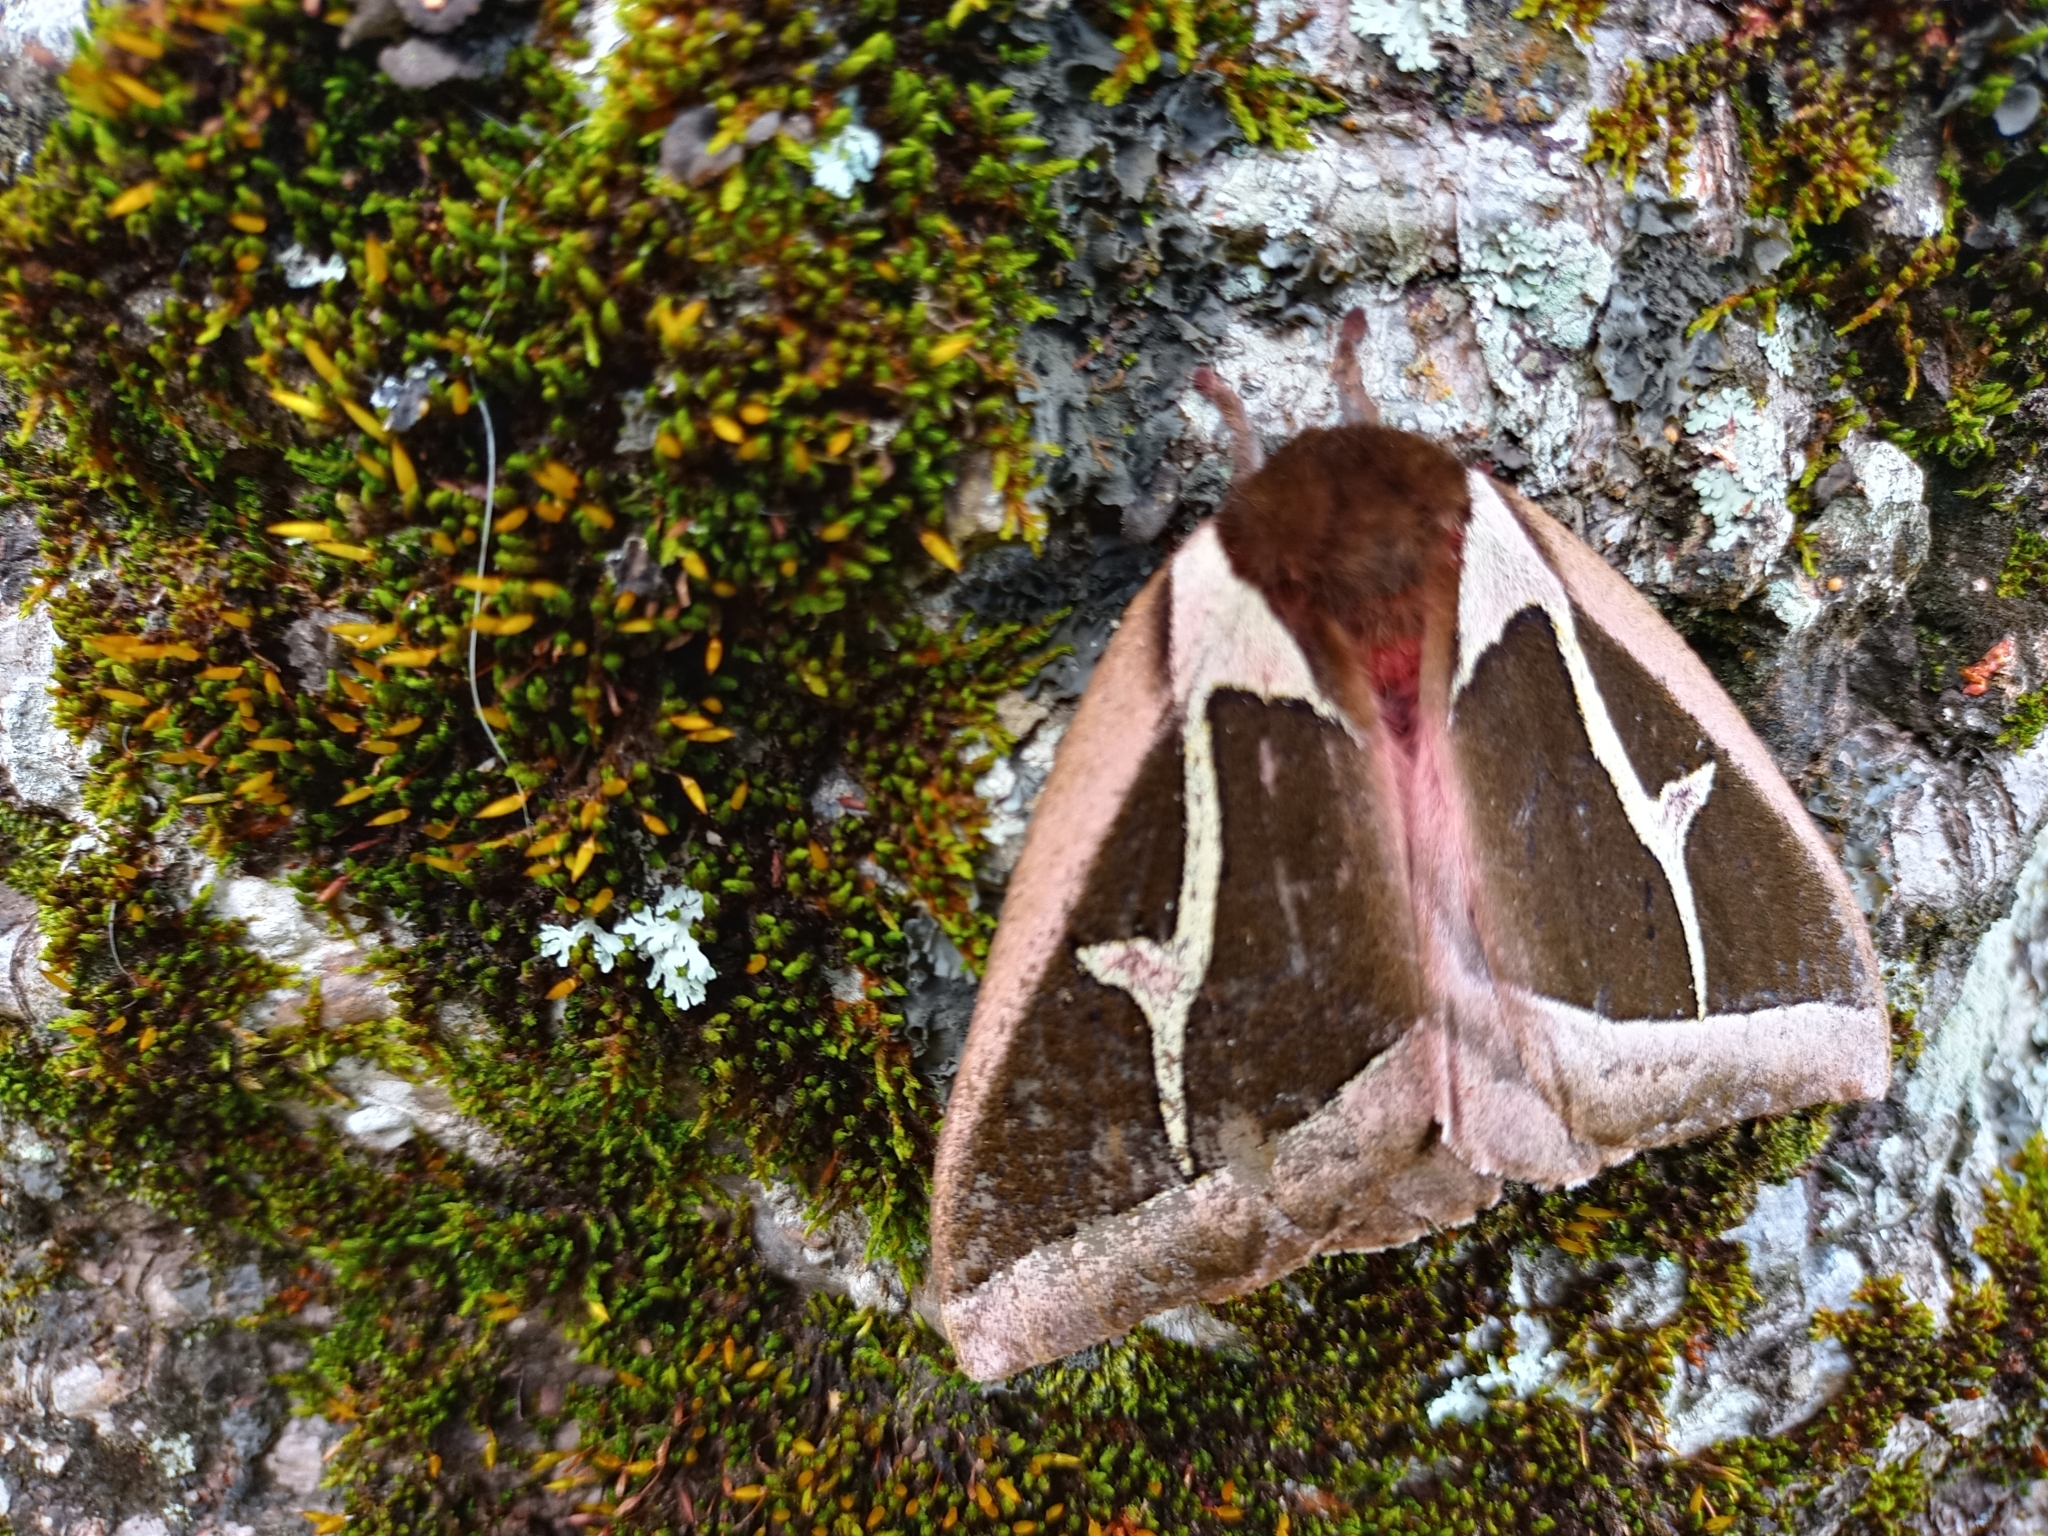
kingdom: Animalia
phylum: Arthropoda
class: Insecta
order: Lepidoptera
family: Saturniidae
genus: Dirphiopsis
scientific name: Dirphiopsis multicolor
